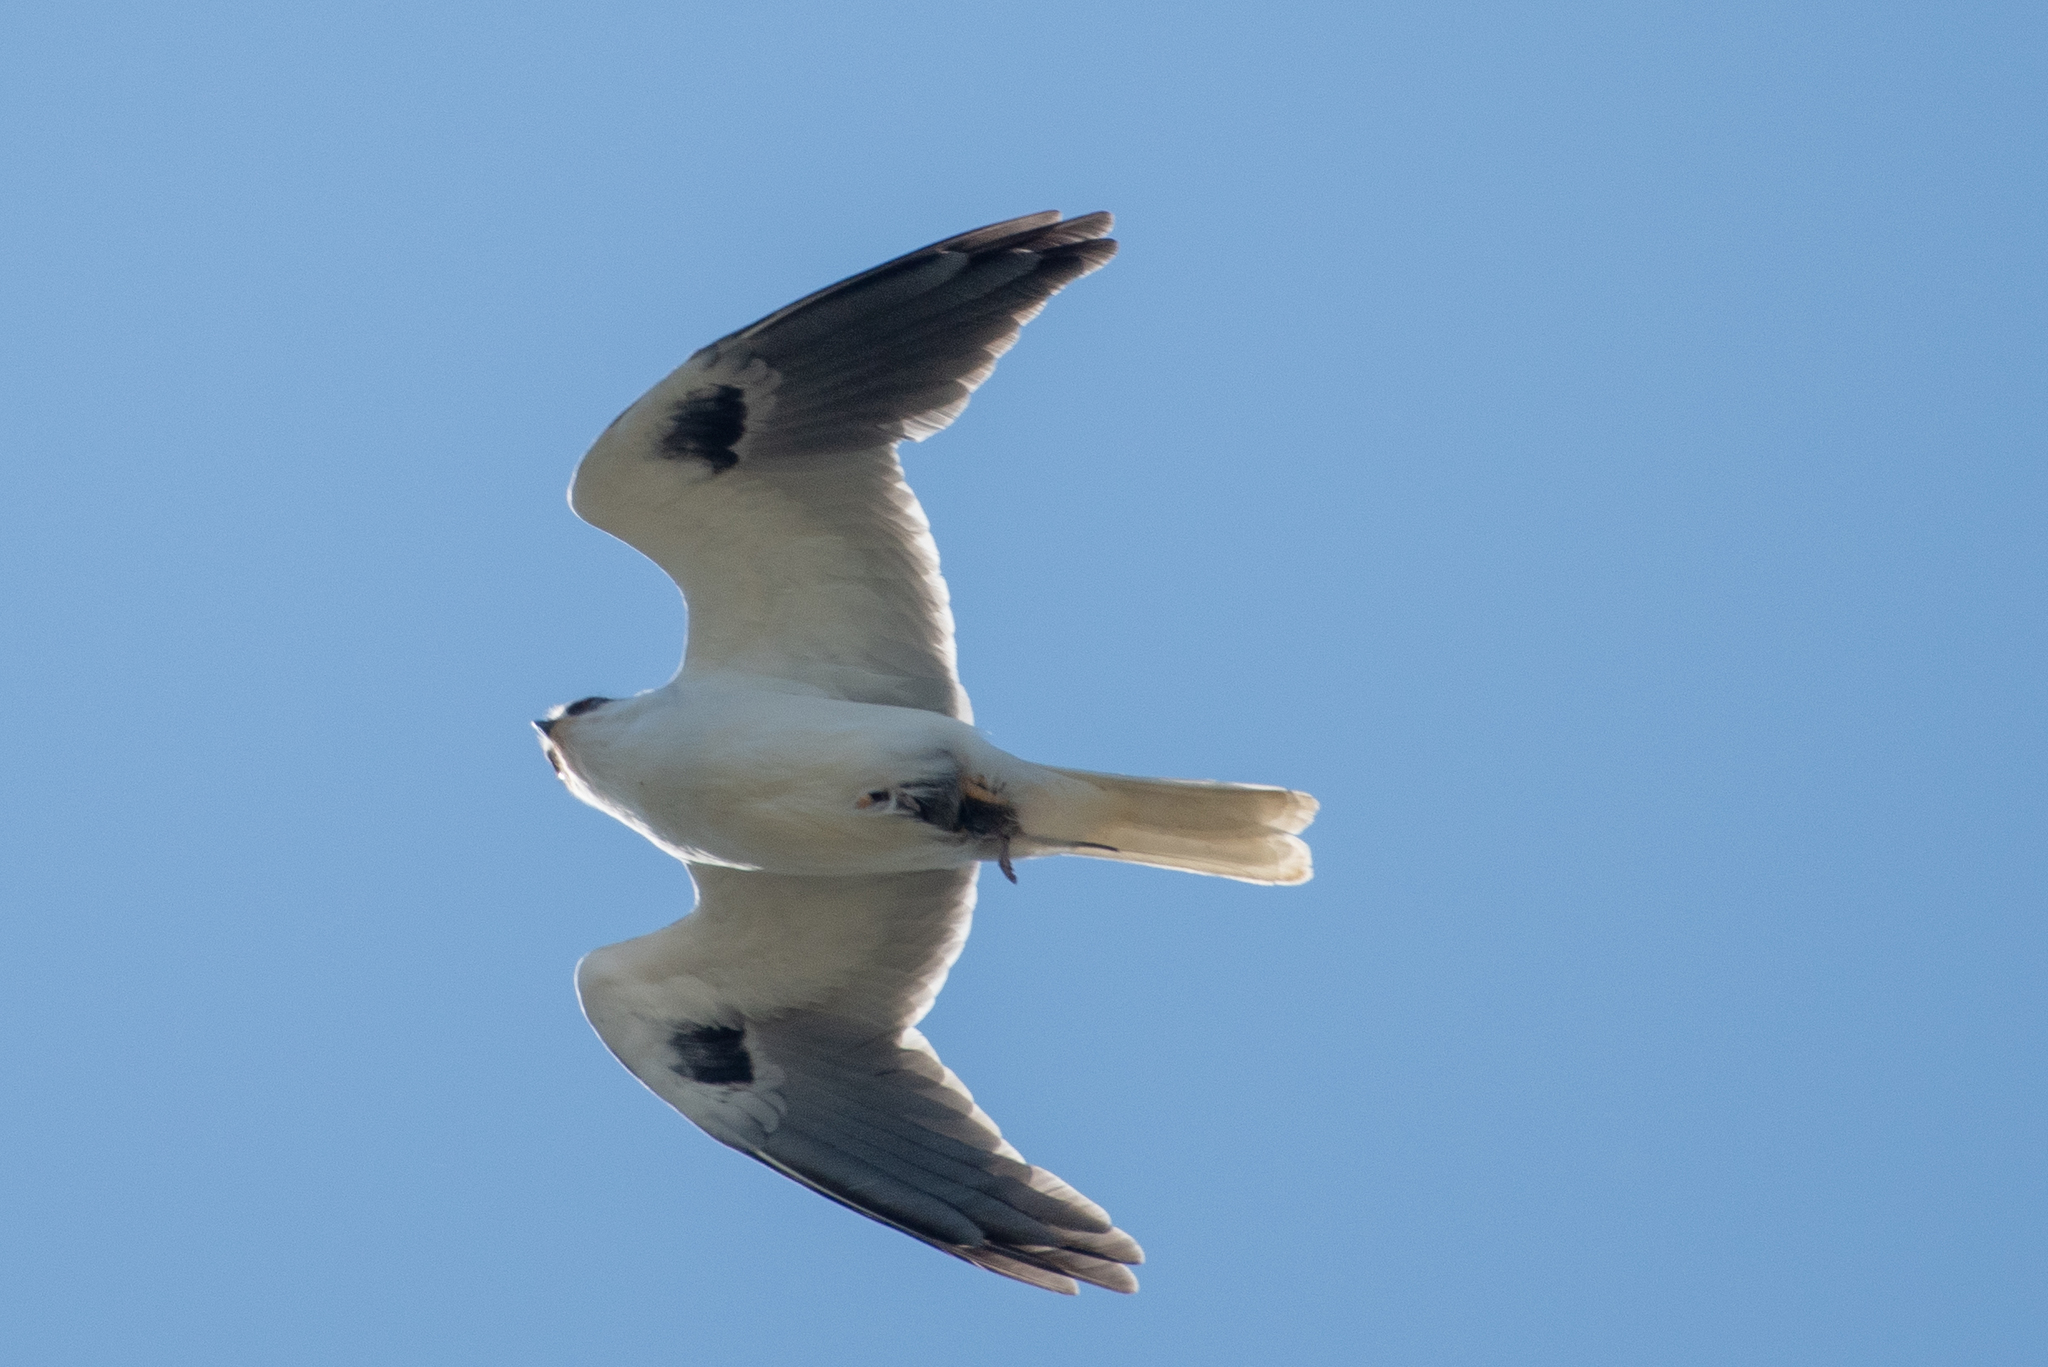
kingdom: Animalia
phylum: Chordata
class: Aves
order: Accipitriformes
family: Accipitridae
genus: Elanus
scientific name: Elanus leucurus
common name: White-tailed kite
